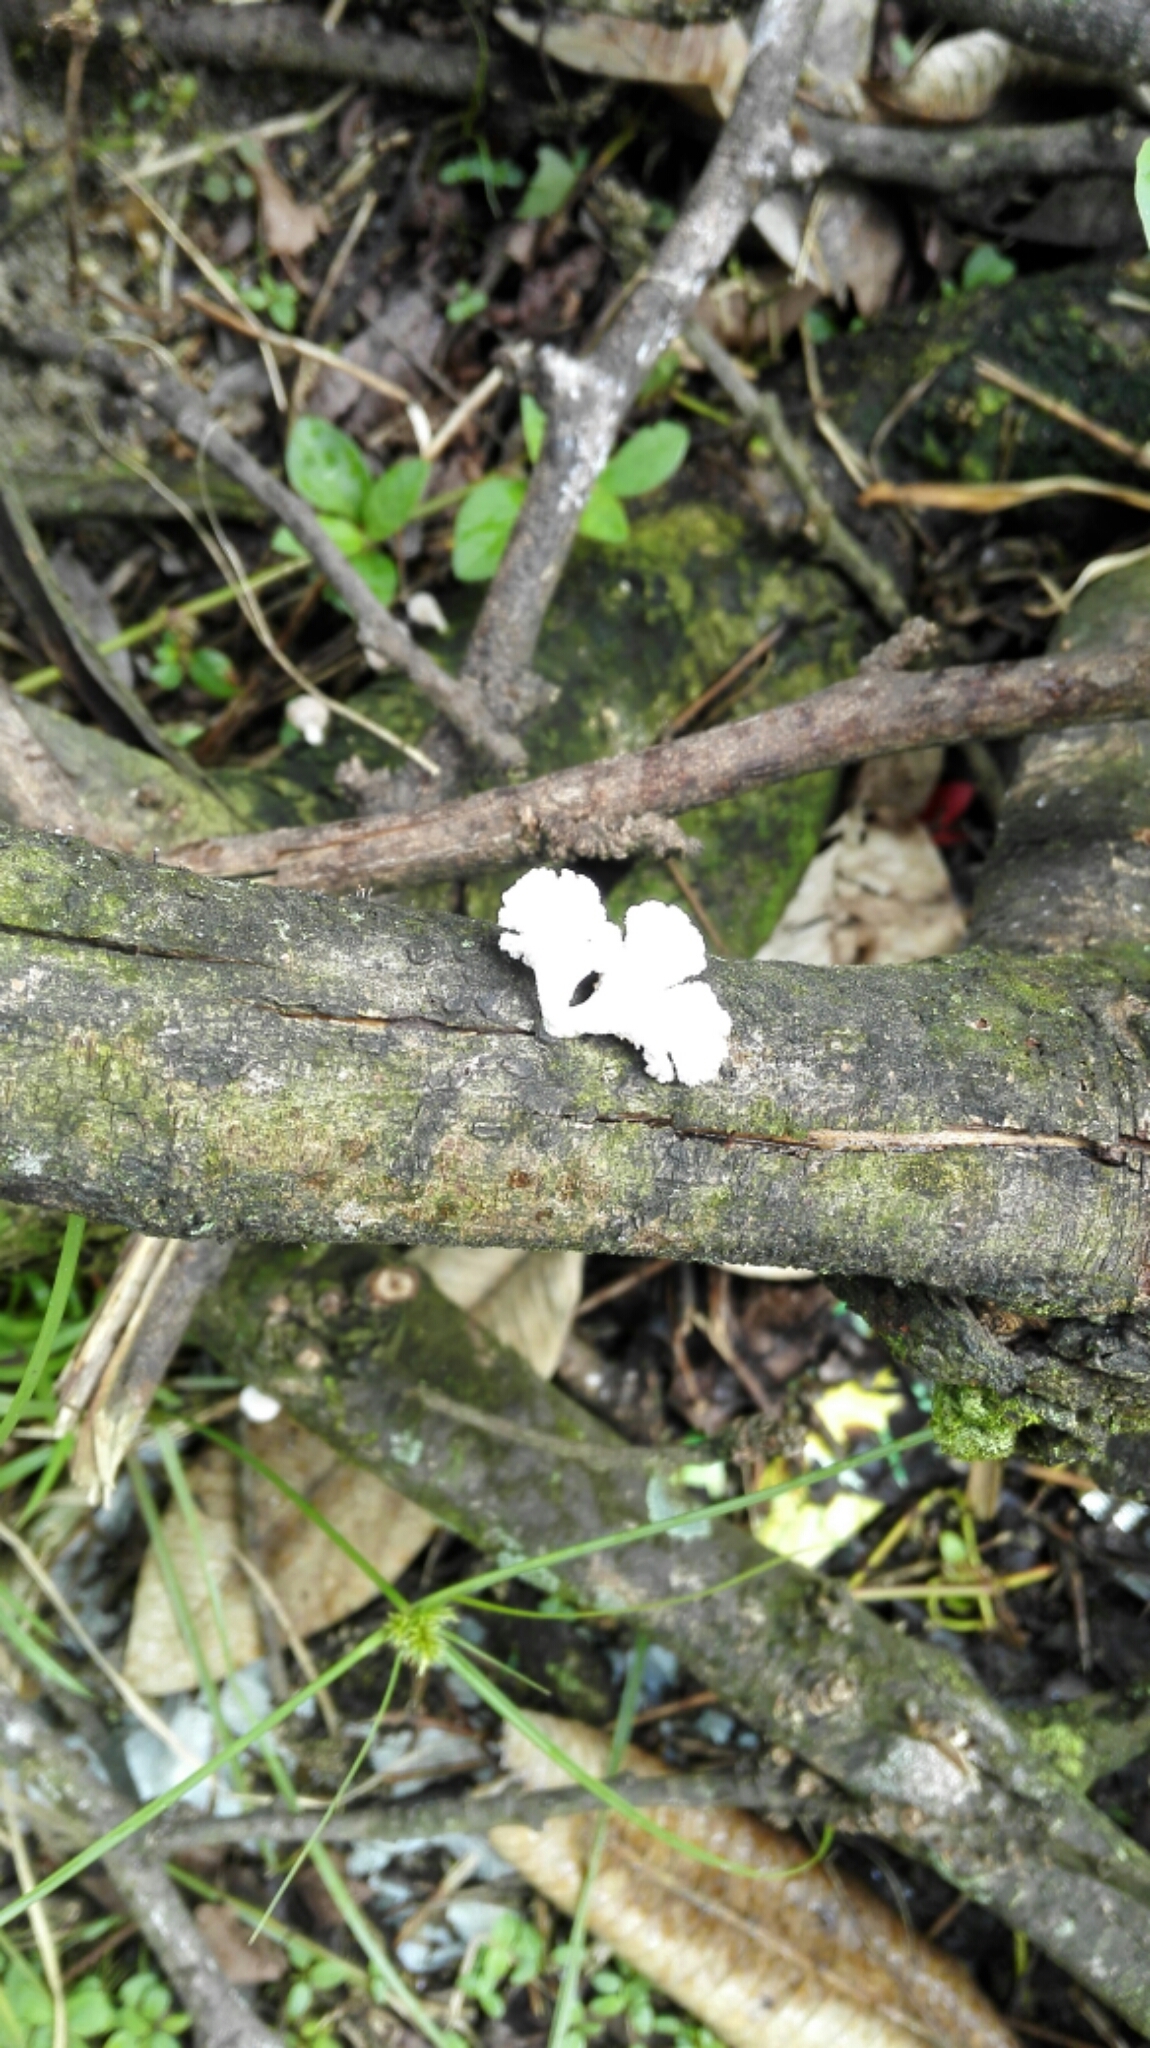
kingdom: Fungi
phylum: Basidiomycota
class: Agaricomycetes
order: Agaricales
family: Schizophyllaceae
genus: Schizophyllum
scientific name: Schizophyllum commune
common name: Common porecrust
